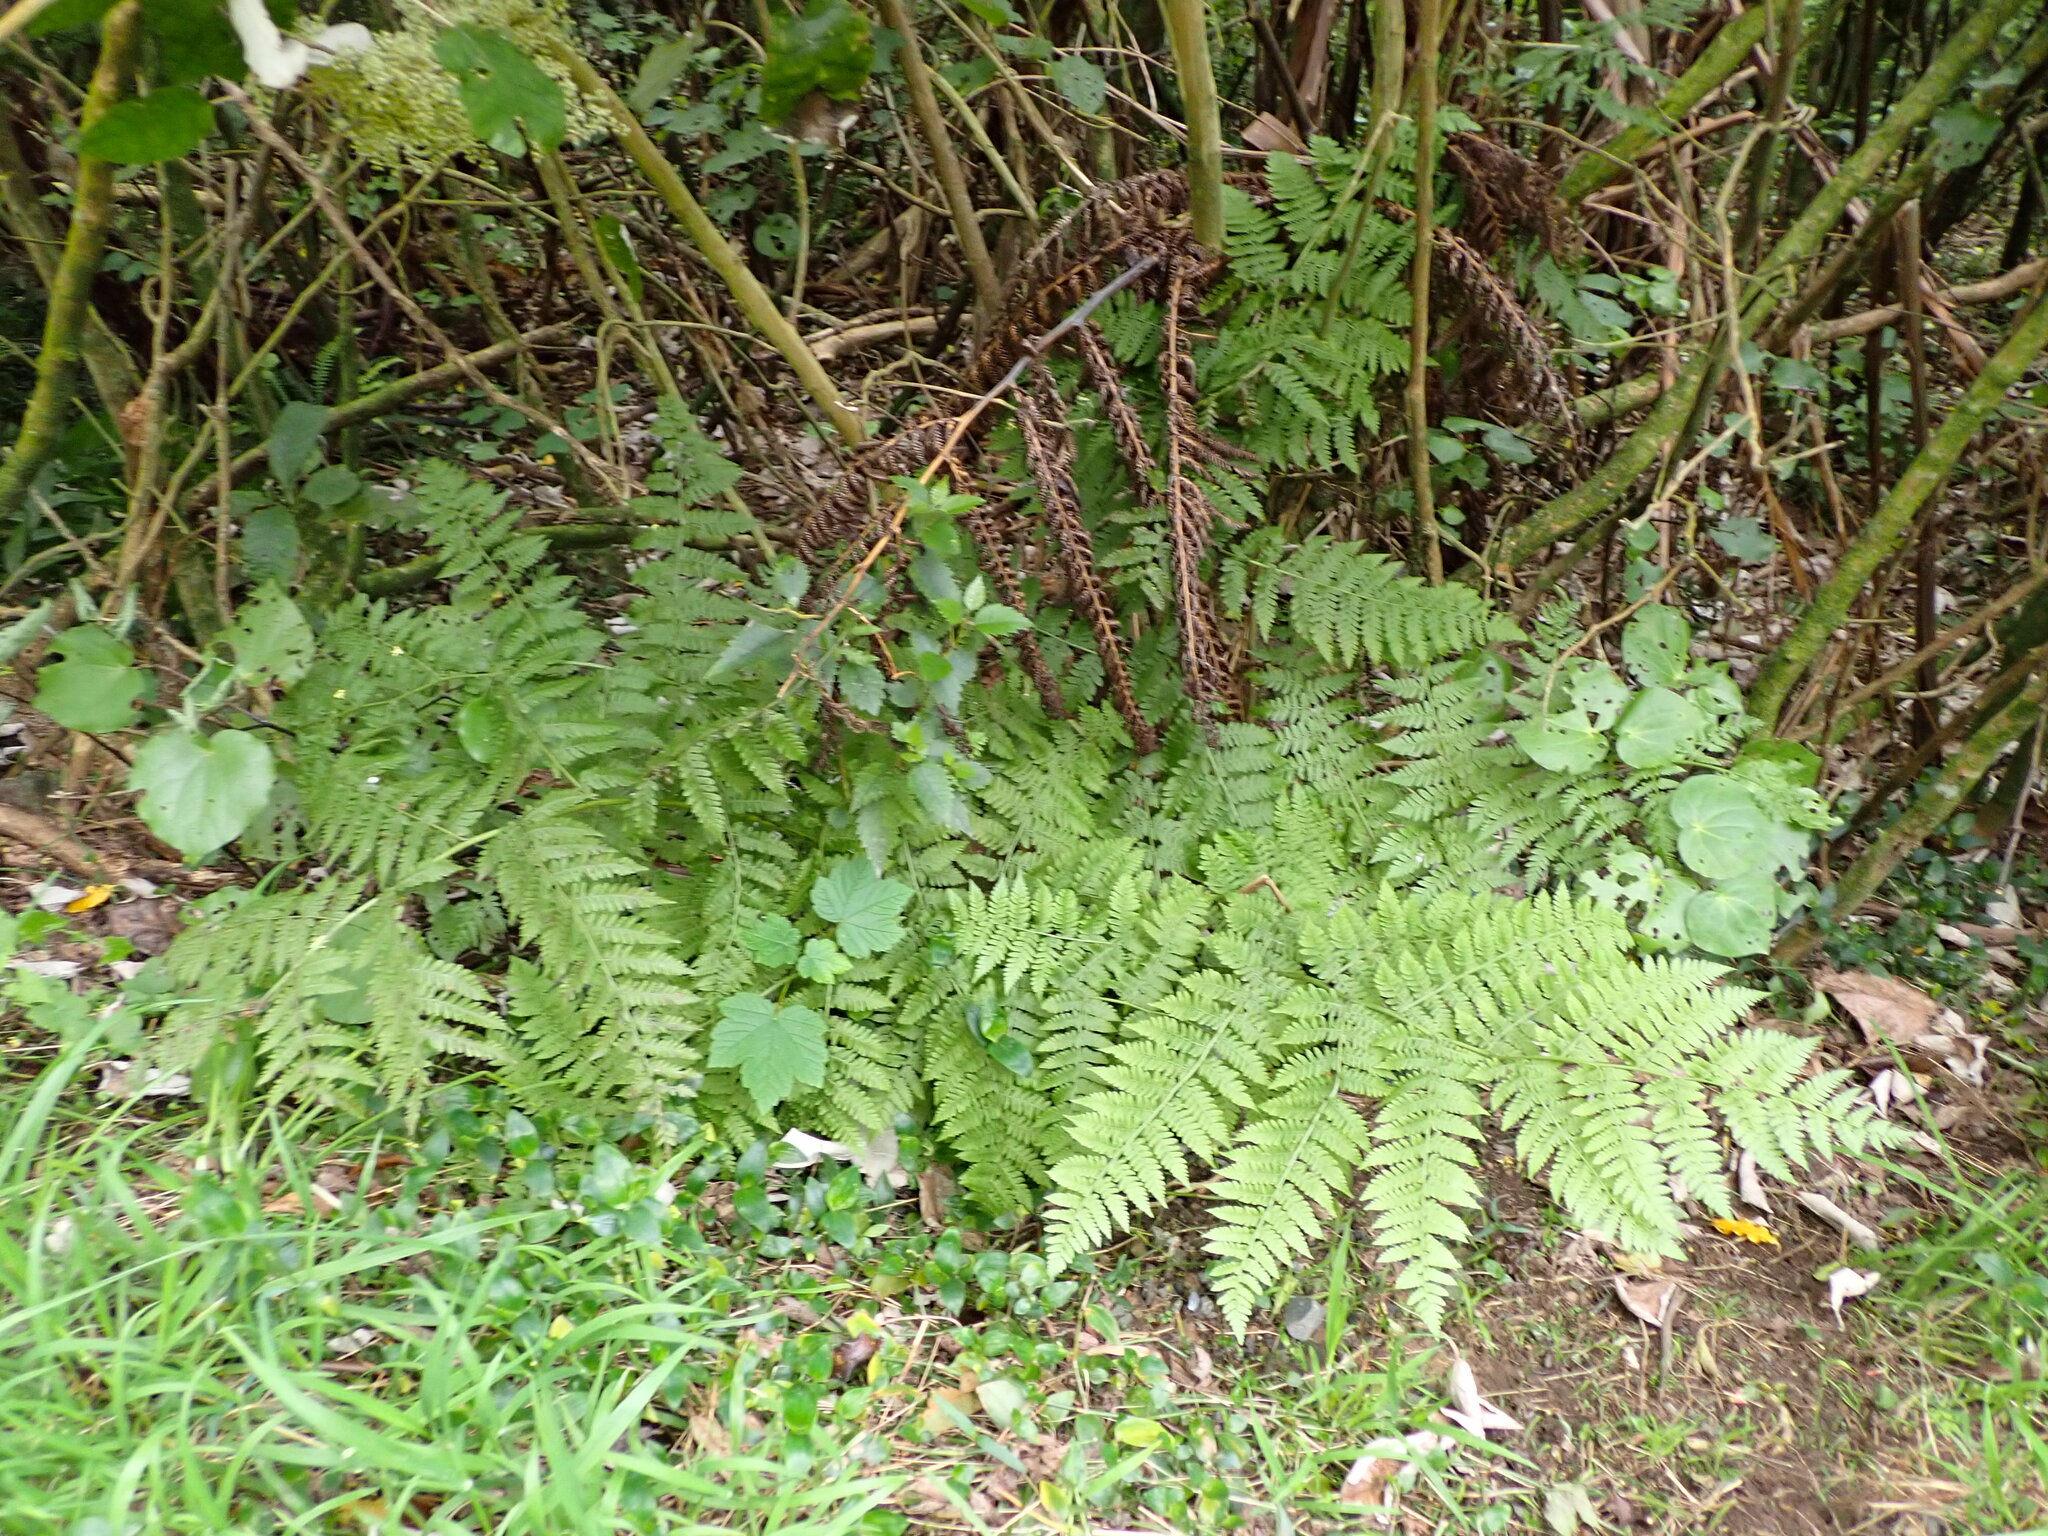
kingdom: Plantae
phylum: Tracheophyta
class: Polypodiopsida
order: Polypodiales
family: Athyriaceae
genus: Diplazium
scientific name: Diplazium australe
